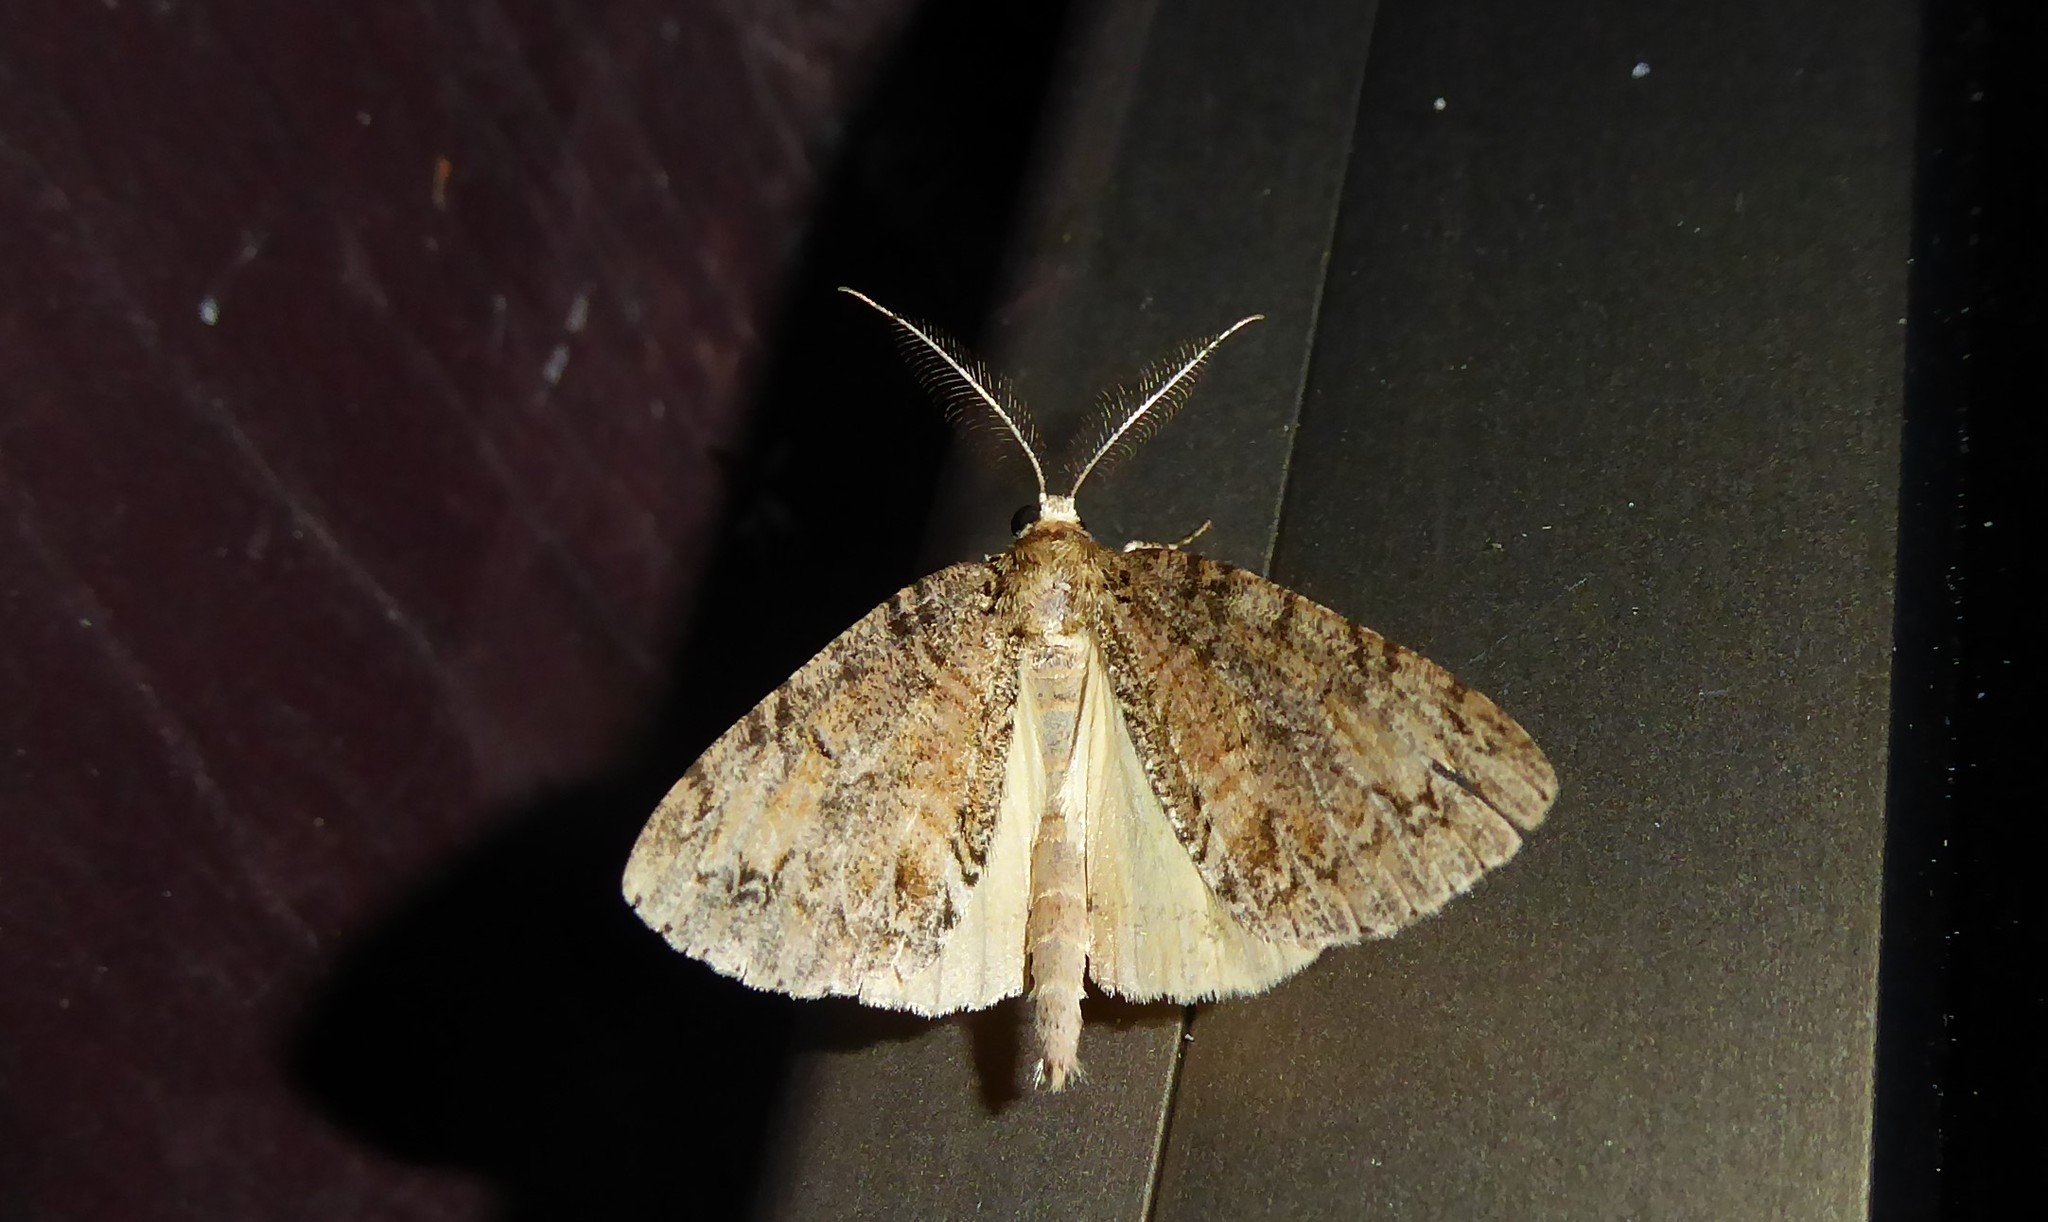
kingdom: Animalia
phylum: Arthropoda
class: Insecta
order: Lepidoptera
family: Geometridae
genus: Pseudocoremia
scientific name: Pseudocoremia suavis
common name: Common forest looper
